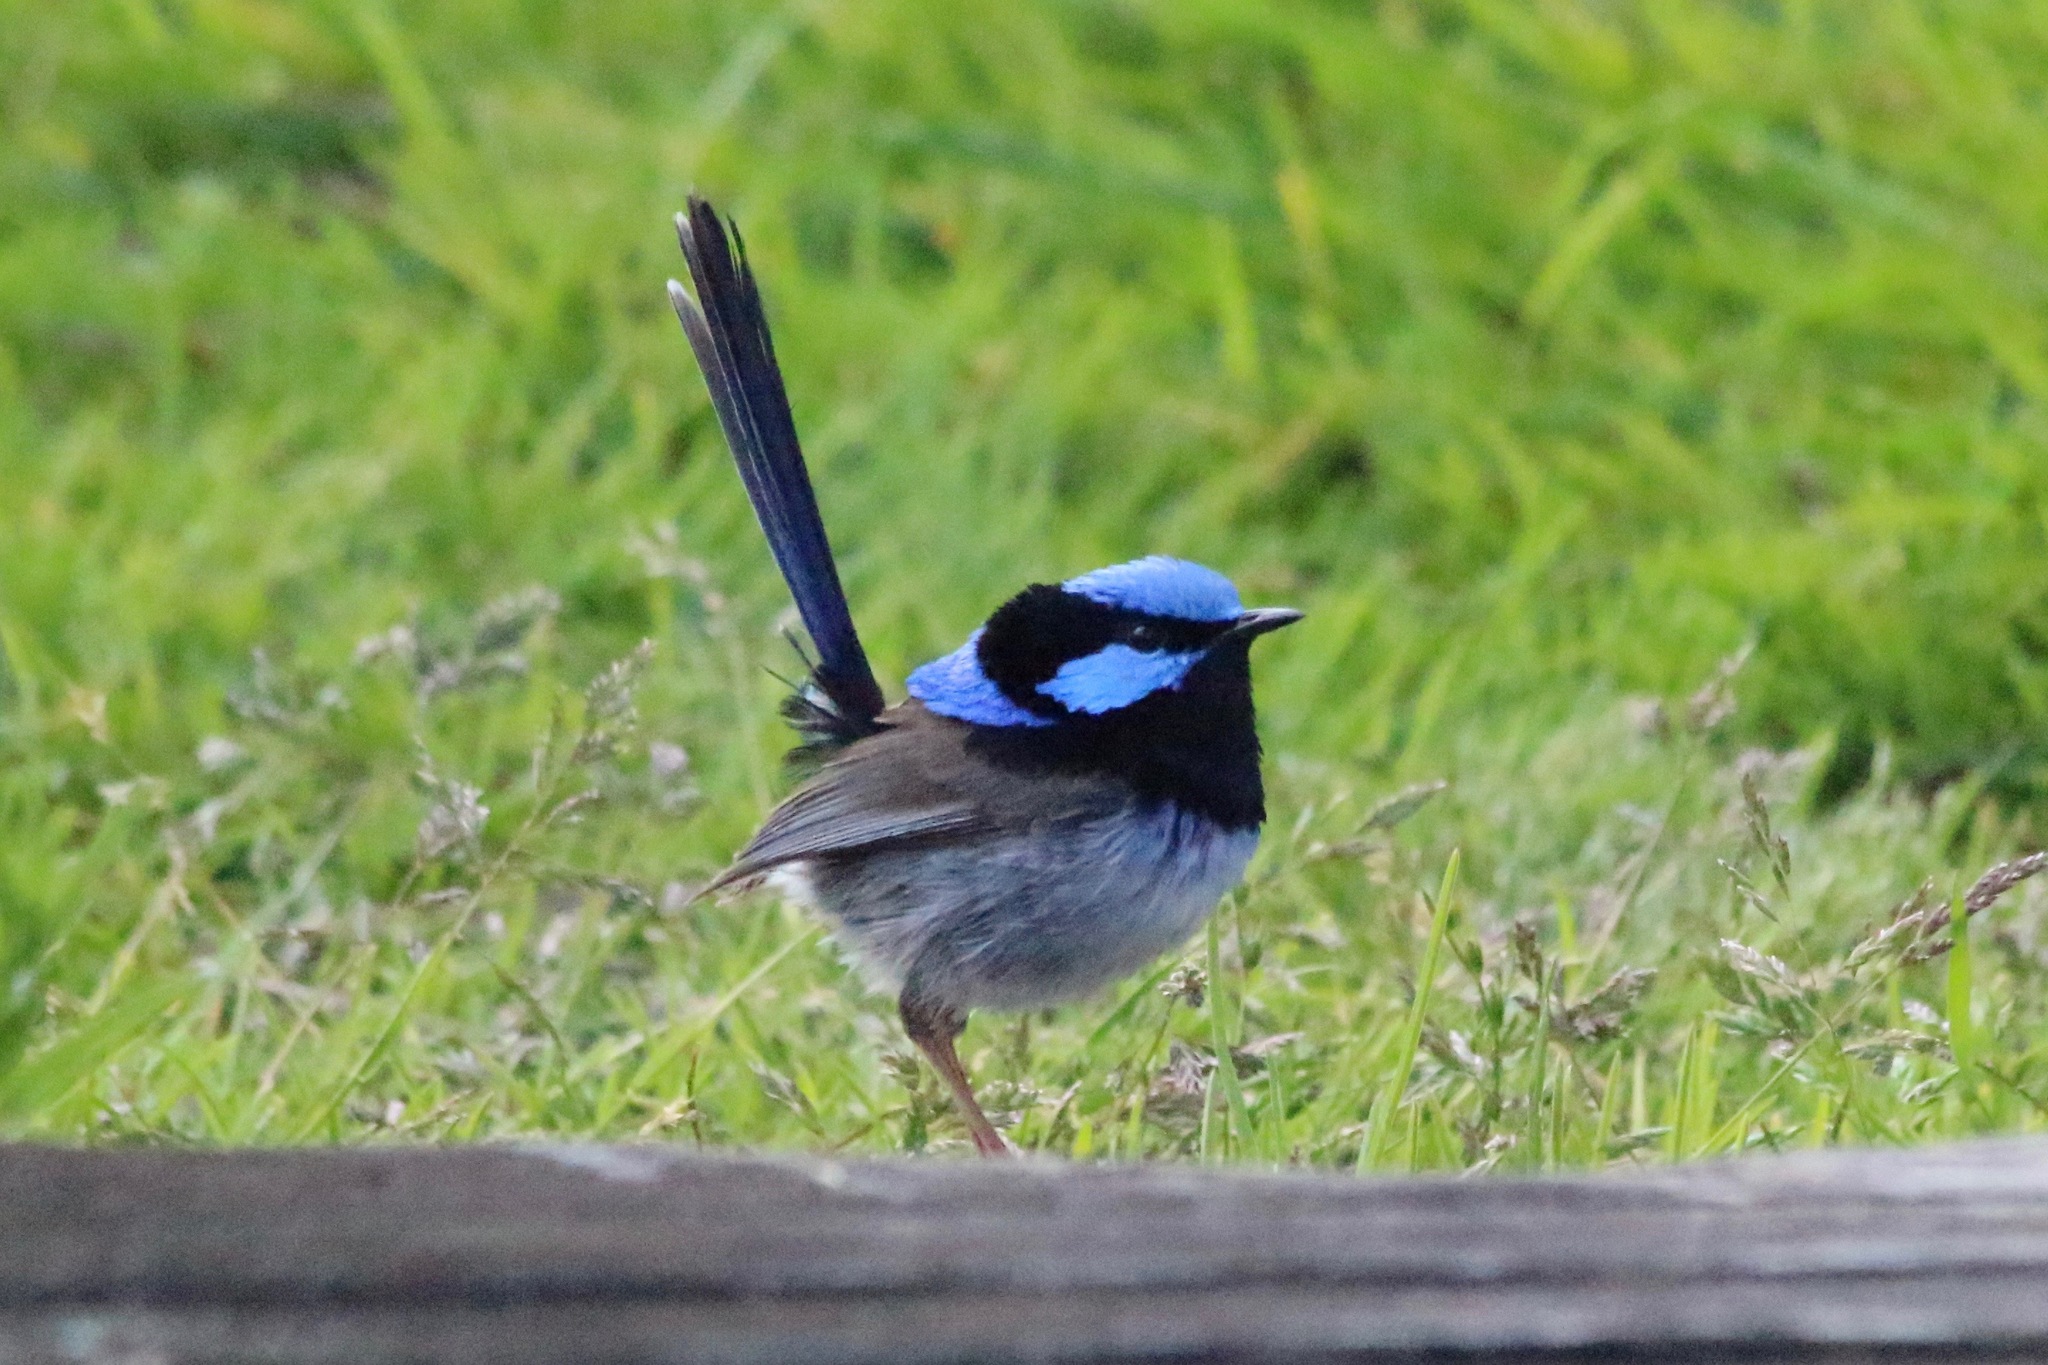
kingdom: Animalia
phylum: Chordata
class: Aves
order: Passeriformes
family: Maluridae
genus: Malurus
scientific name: Malurus cyaneus
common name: Superb fairywren
